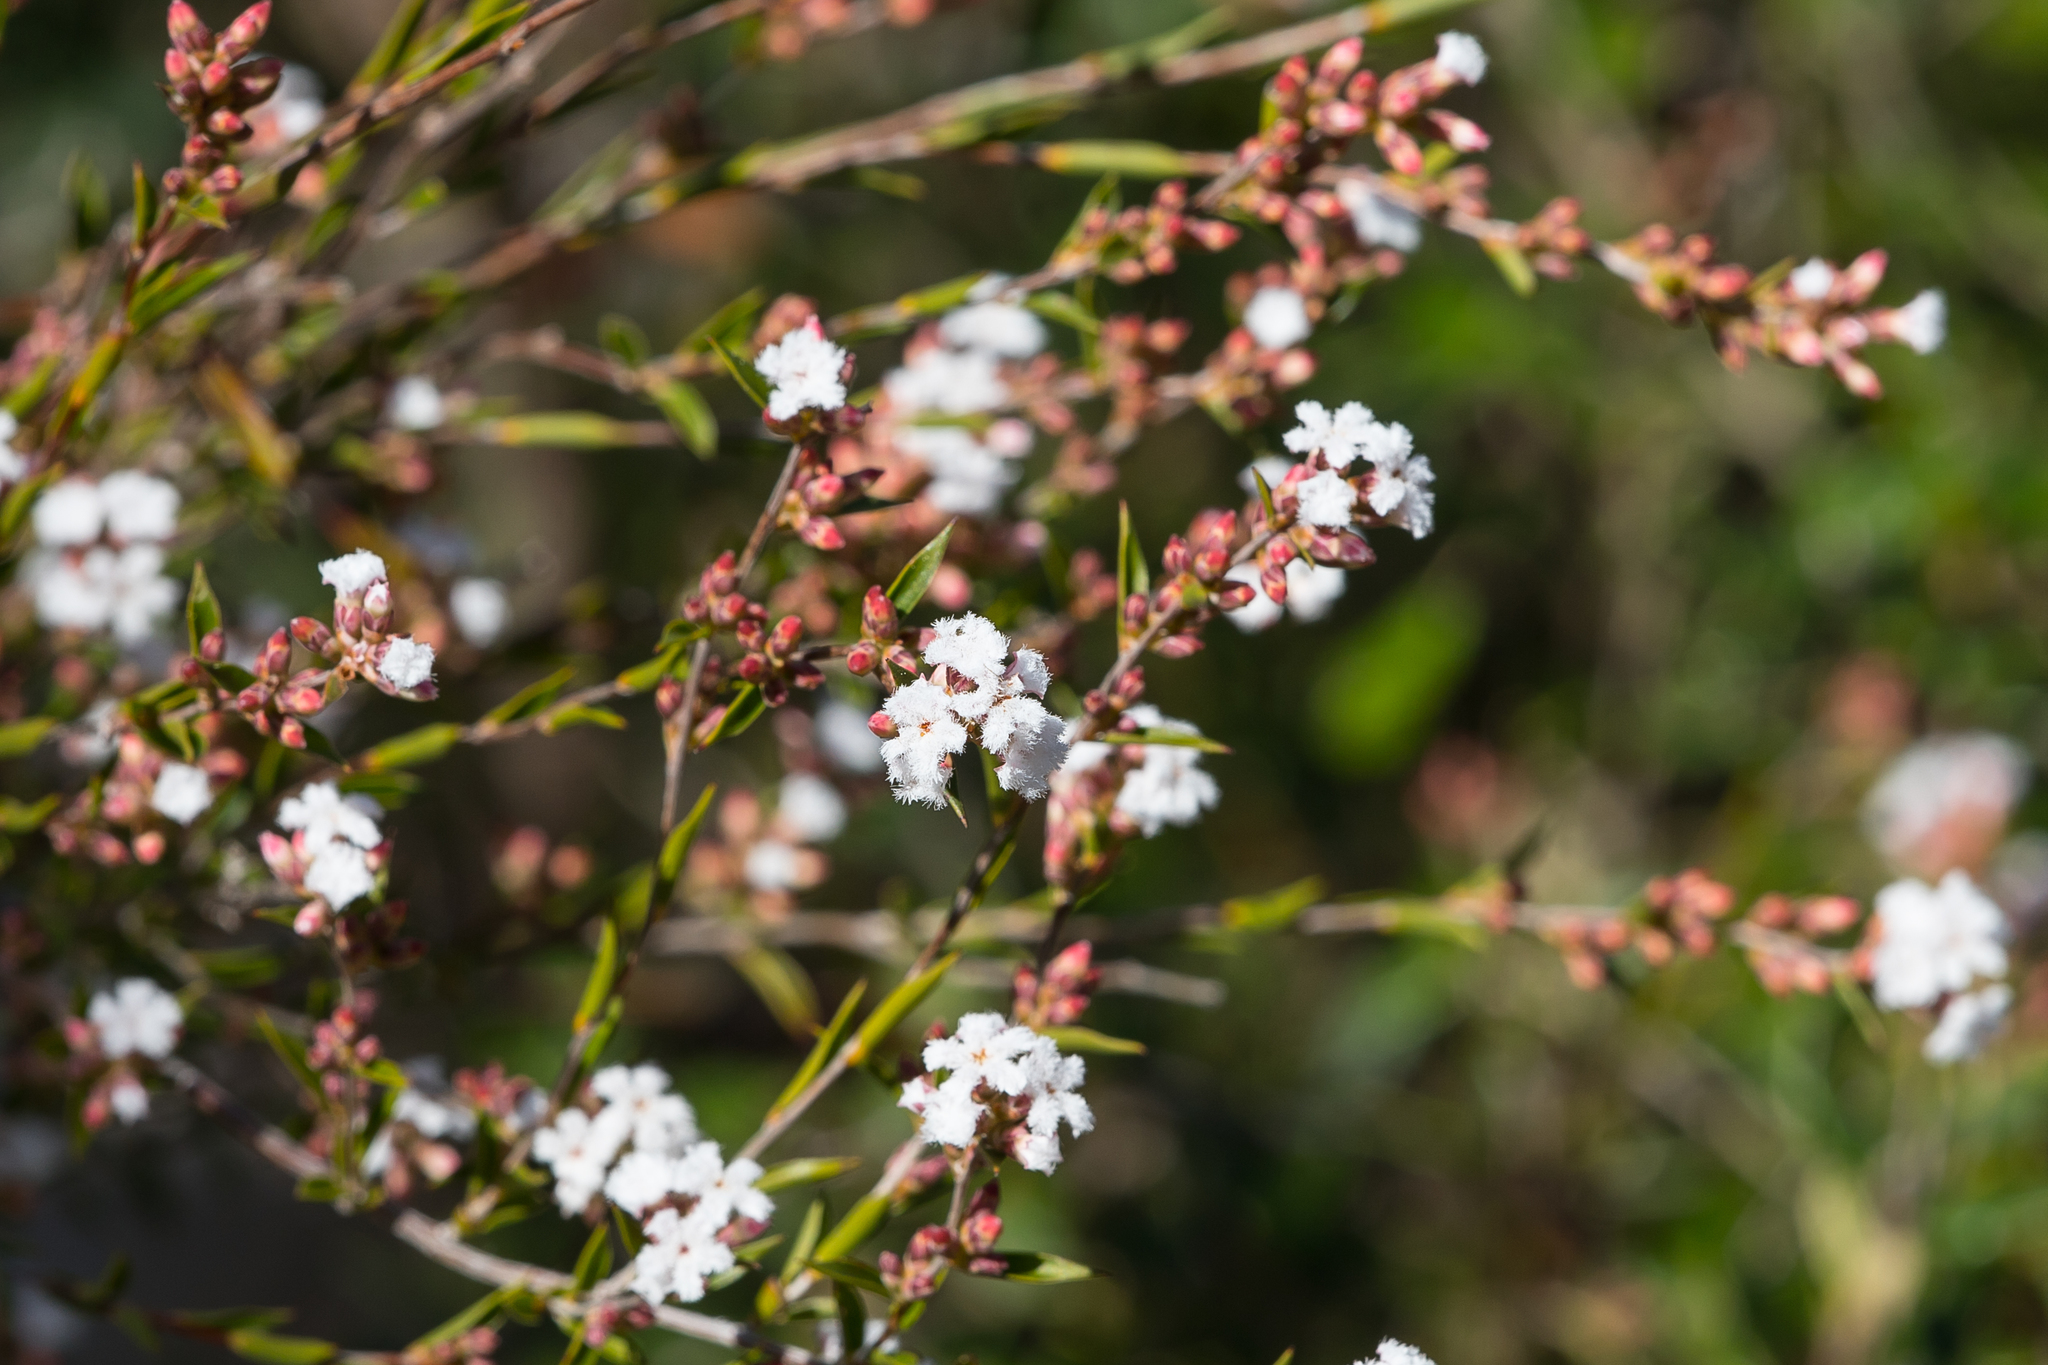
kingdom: Plantae
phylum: Tracheophyta
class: Magnoliopsida
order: Ericales
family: Ericaceae
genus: Leucopogon
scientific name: Leucopogon virgatus
